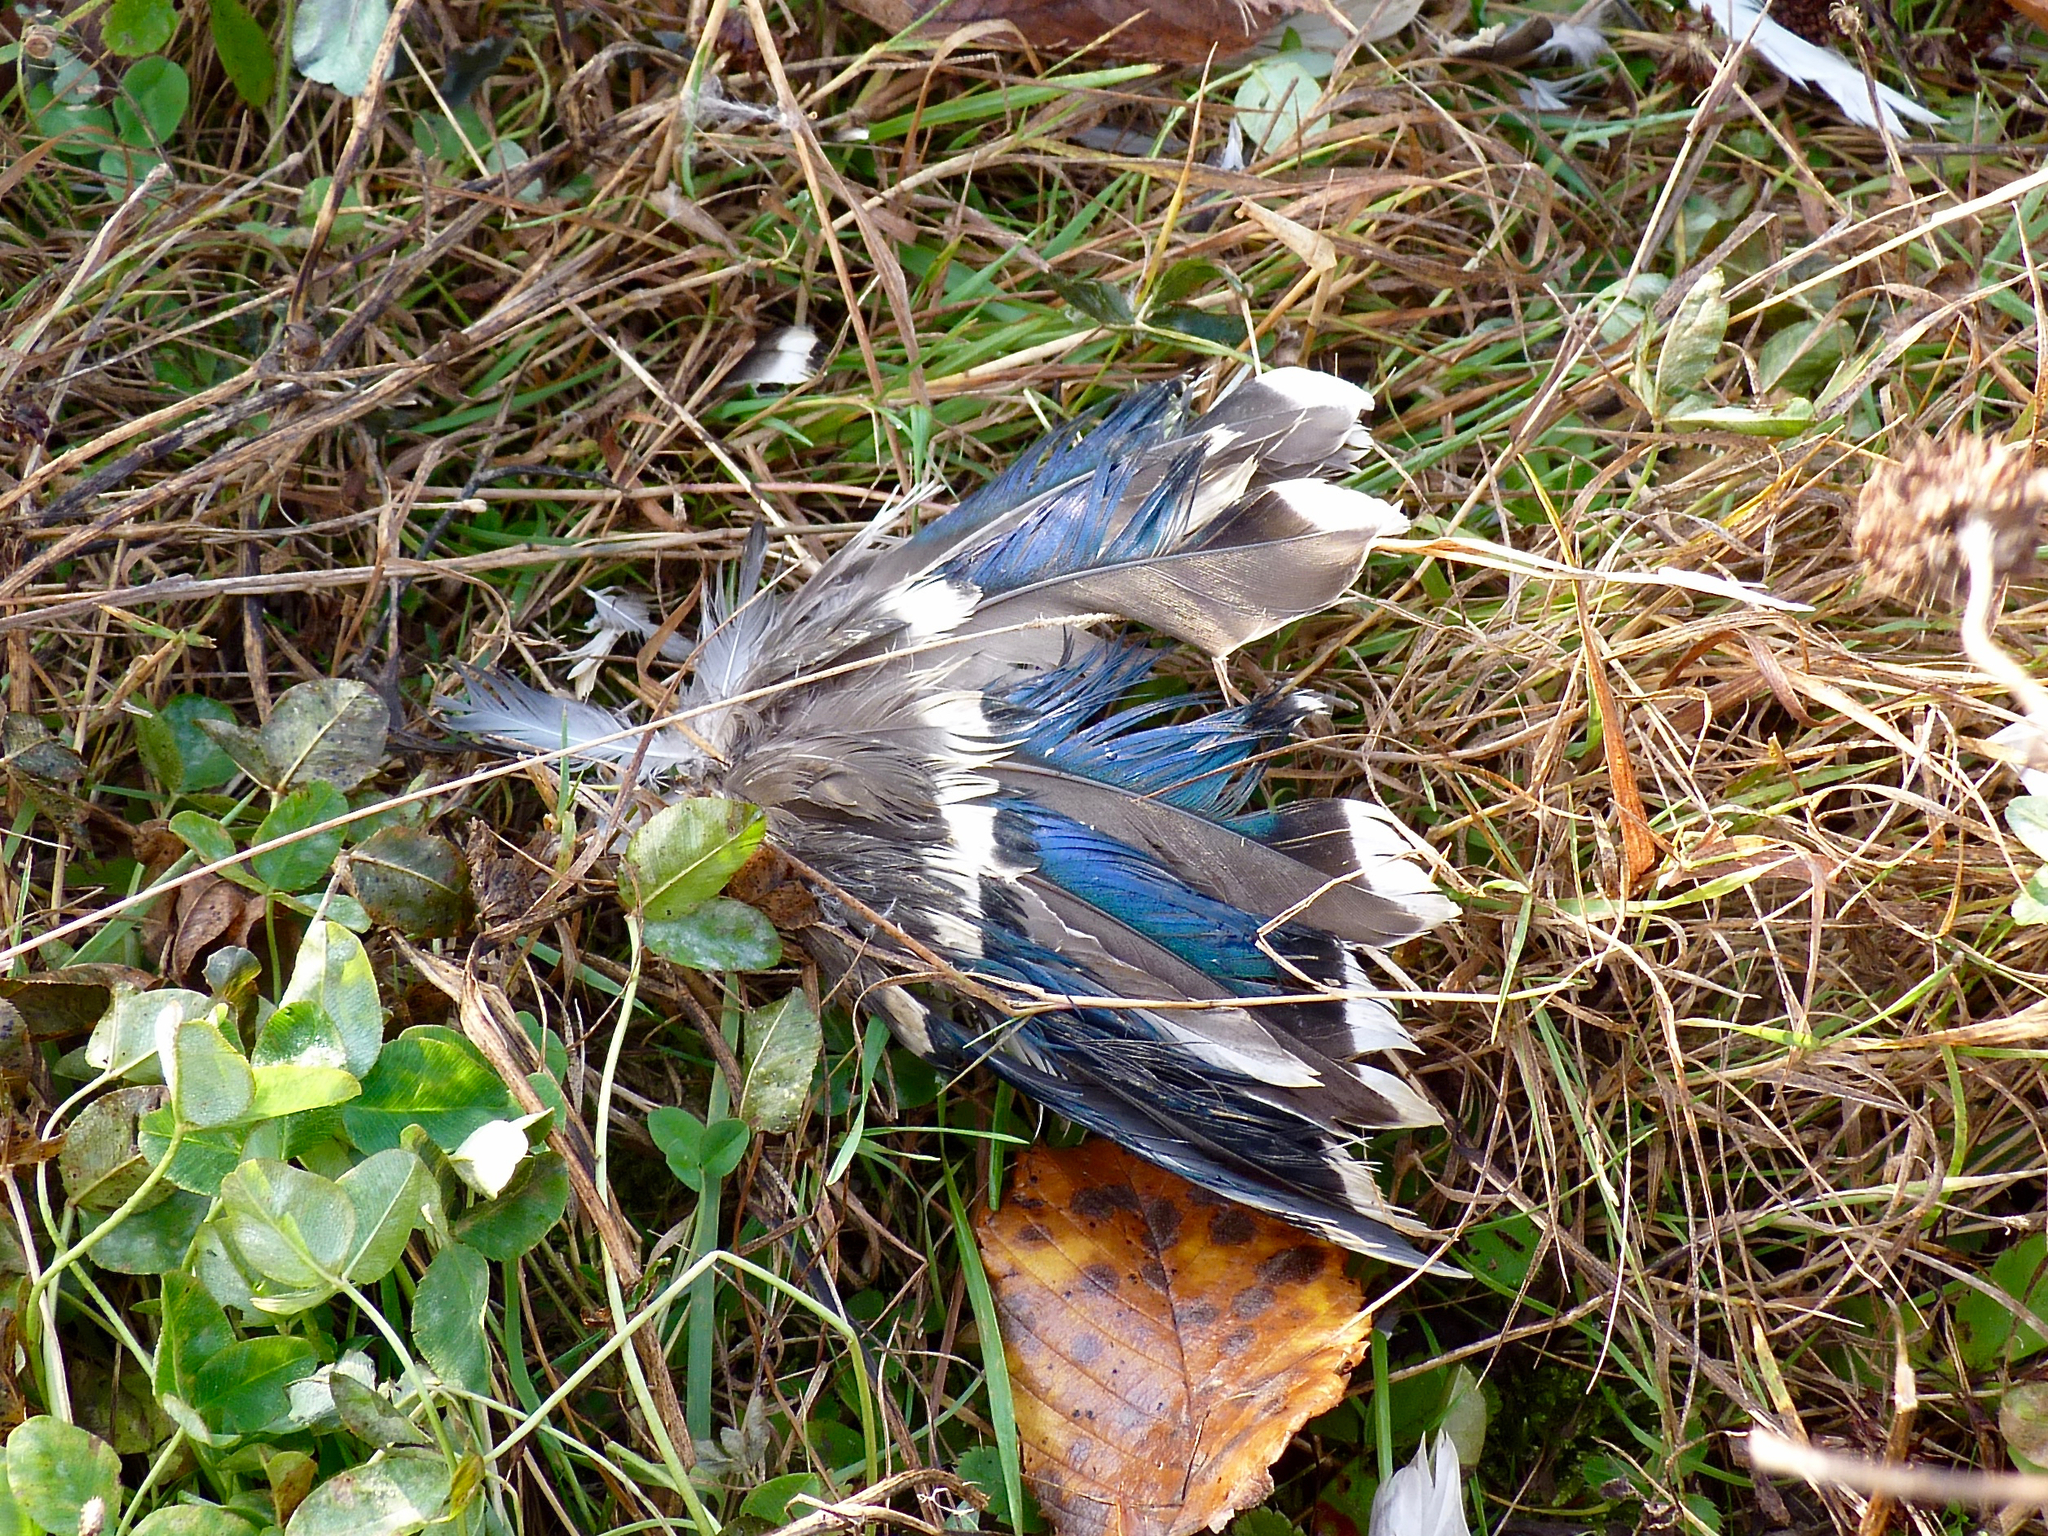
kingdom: Animalia
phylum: Chordata
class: Aves
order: Anseriformes
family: Anatidae
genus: Anas
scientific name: Anas platyrhynchos
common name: Mallard
